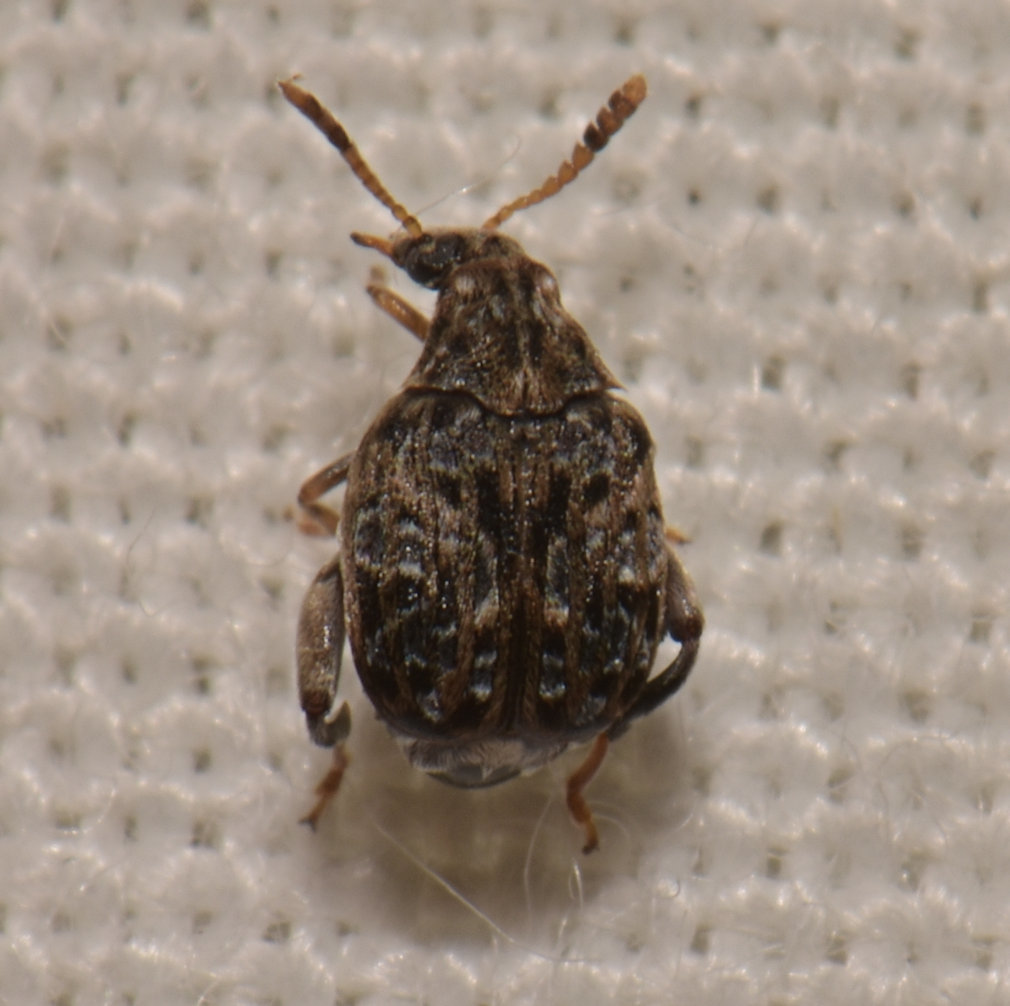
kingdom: Animalia
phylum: Arthropoda
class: Insecta
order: Coleoptera
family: Chrysomelidae
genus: Gibbobruchus
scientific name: Gibbobruchus mimus
